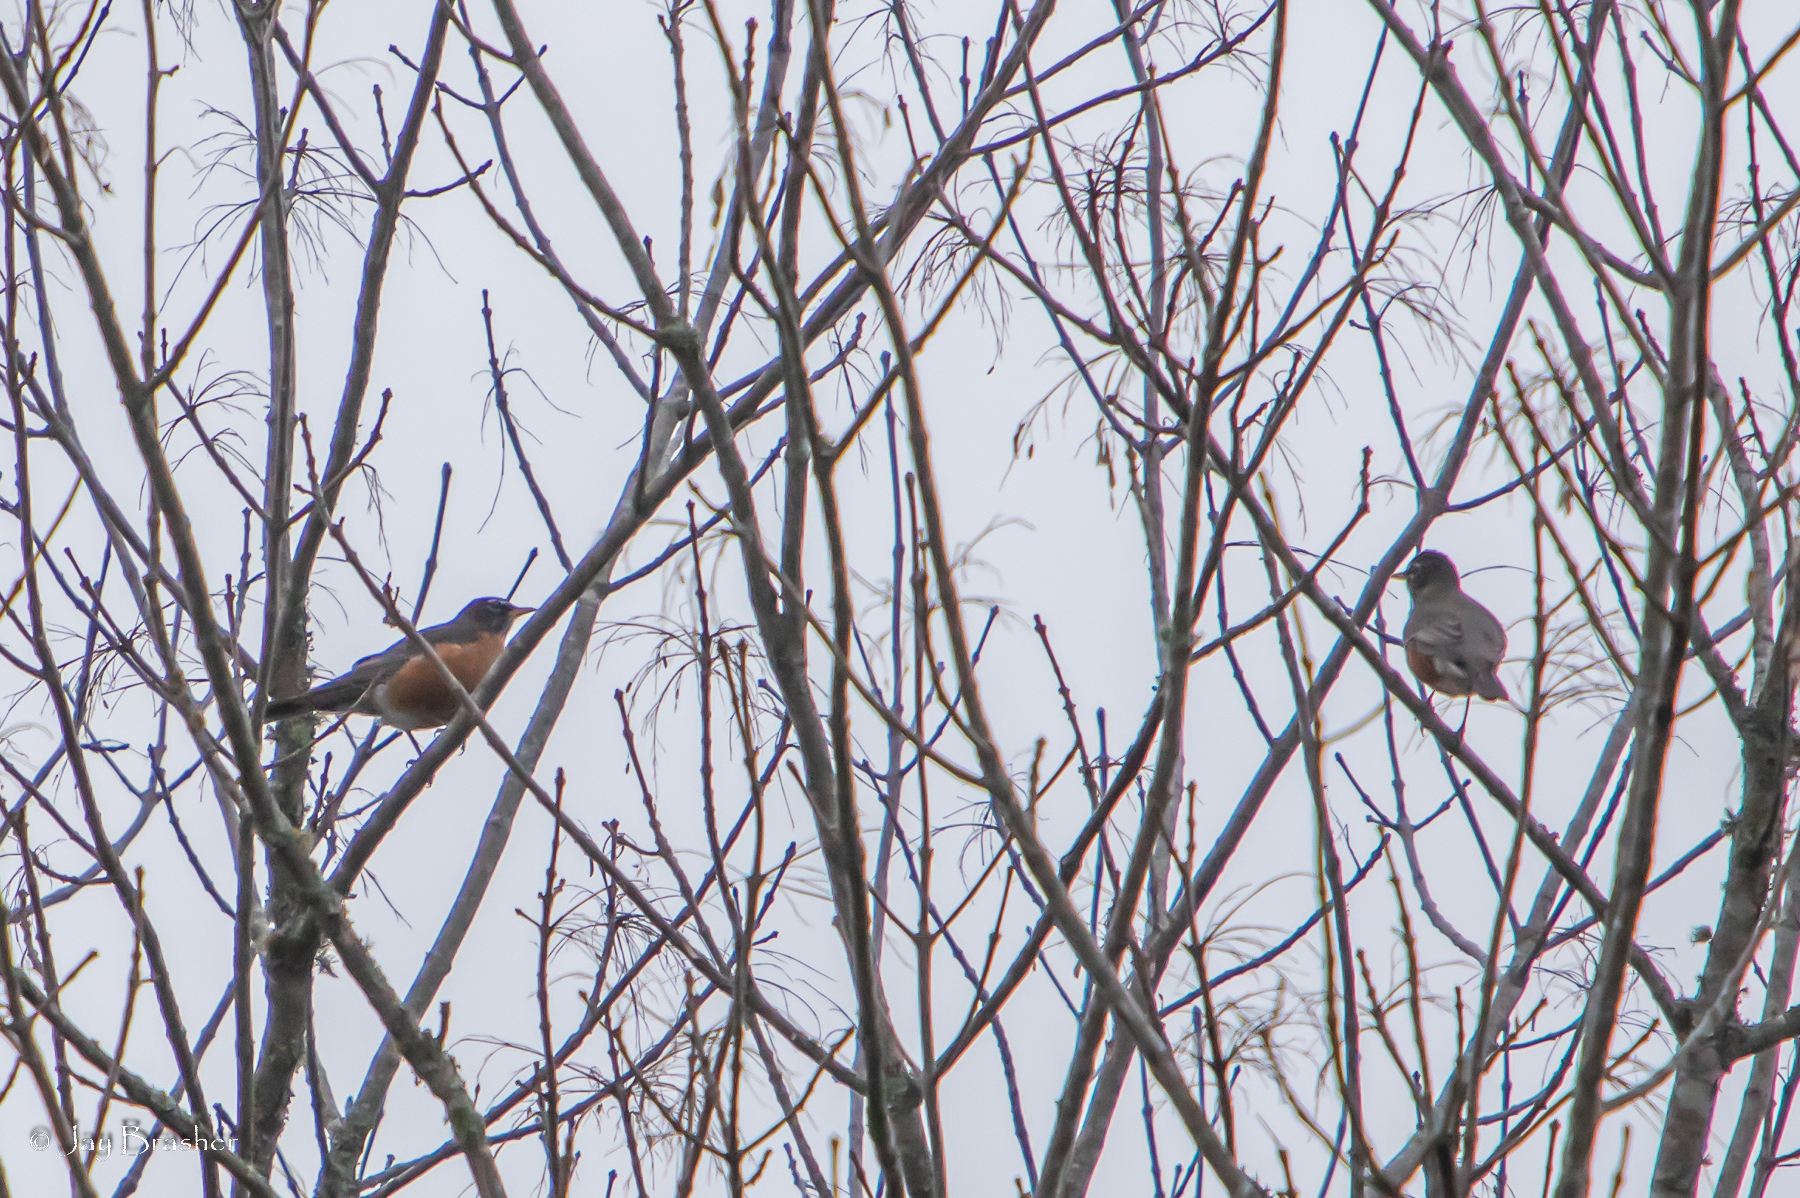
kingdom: Animalia
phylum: Chordata
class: Aves
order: Passeriformes
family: Turdidae
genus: Turdus
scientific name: Turdus migratorius
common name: American robin
